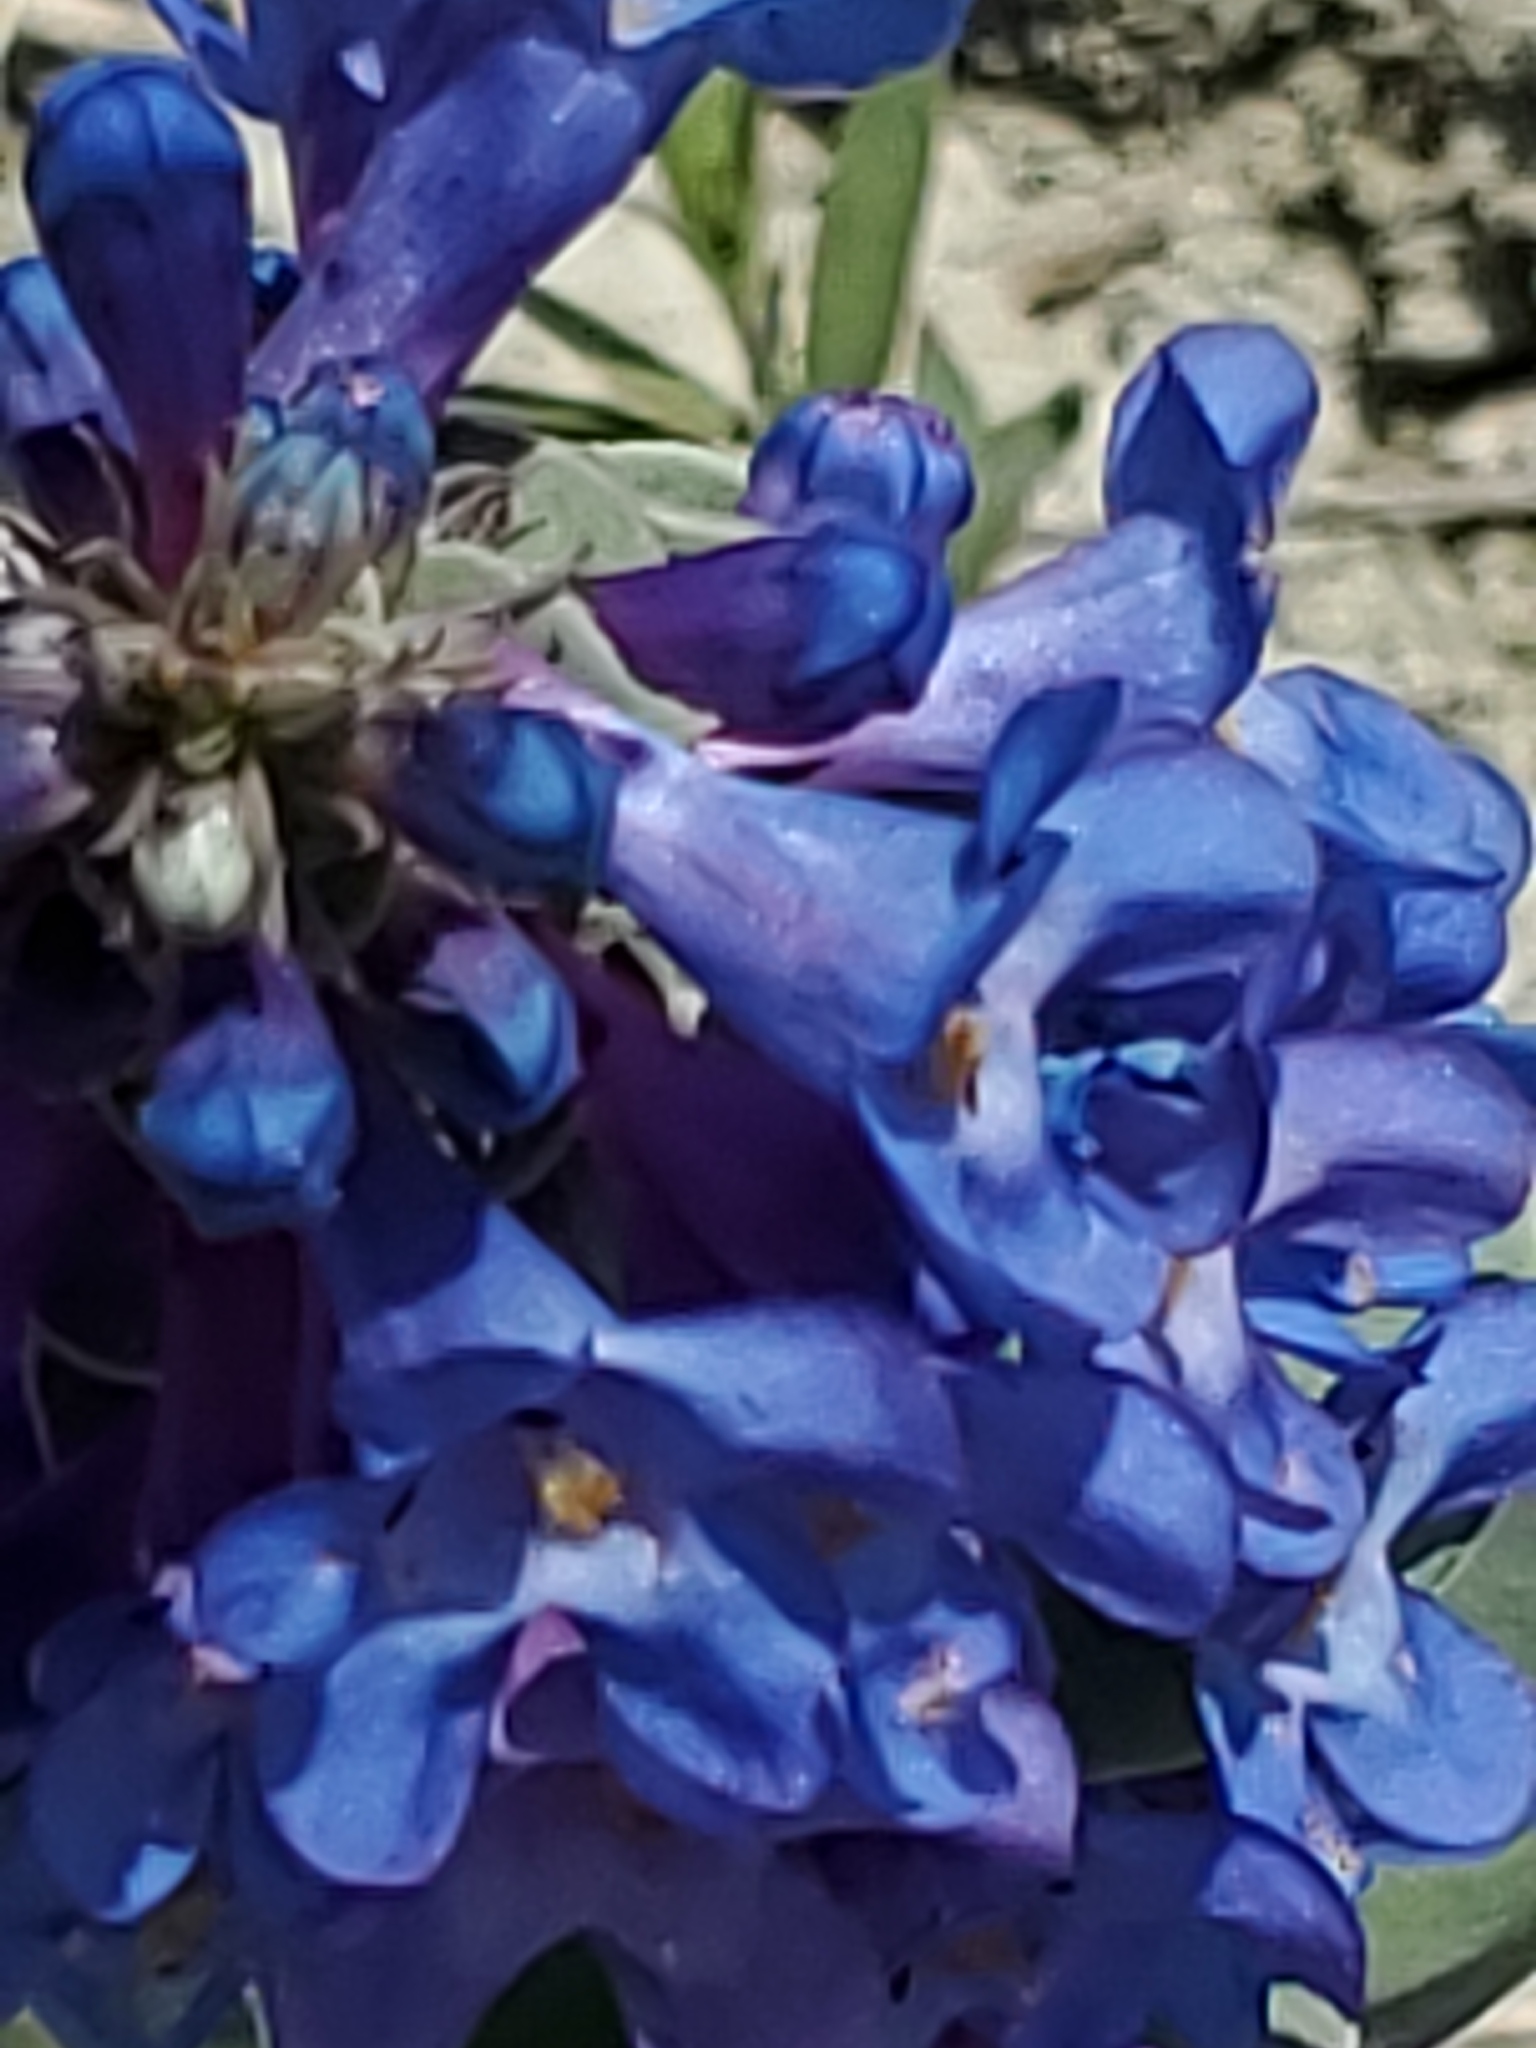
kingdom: Plantae
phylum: Tracheophyta
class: Magnoliopsida
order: Lamiales
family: Plantaginaceae
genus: Penstemon
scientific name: Penstemon nitidus
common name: Shining penstemon
